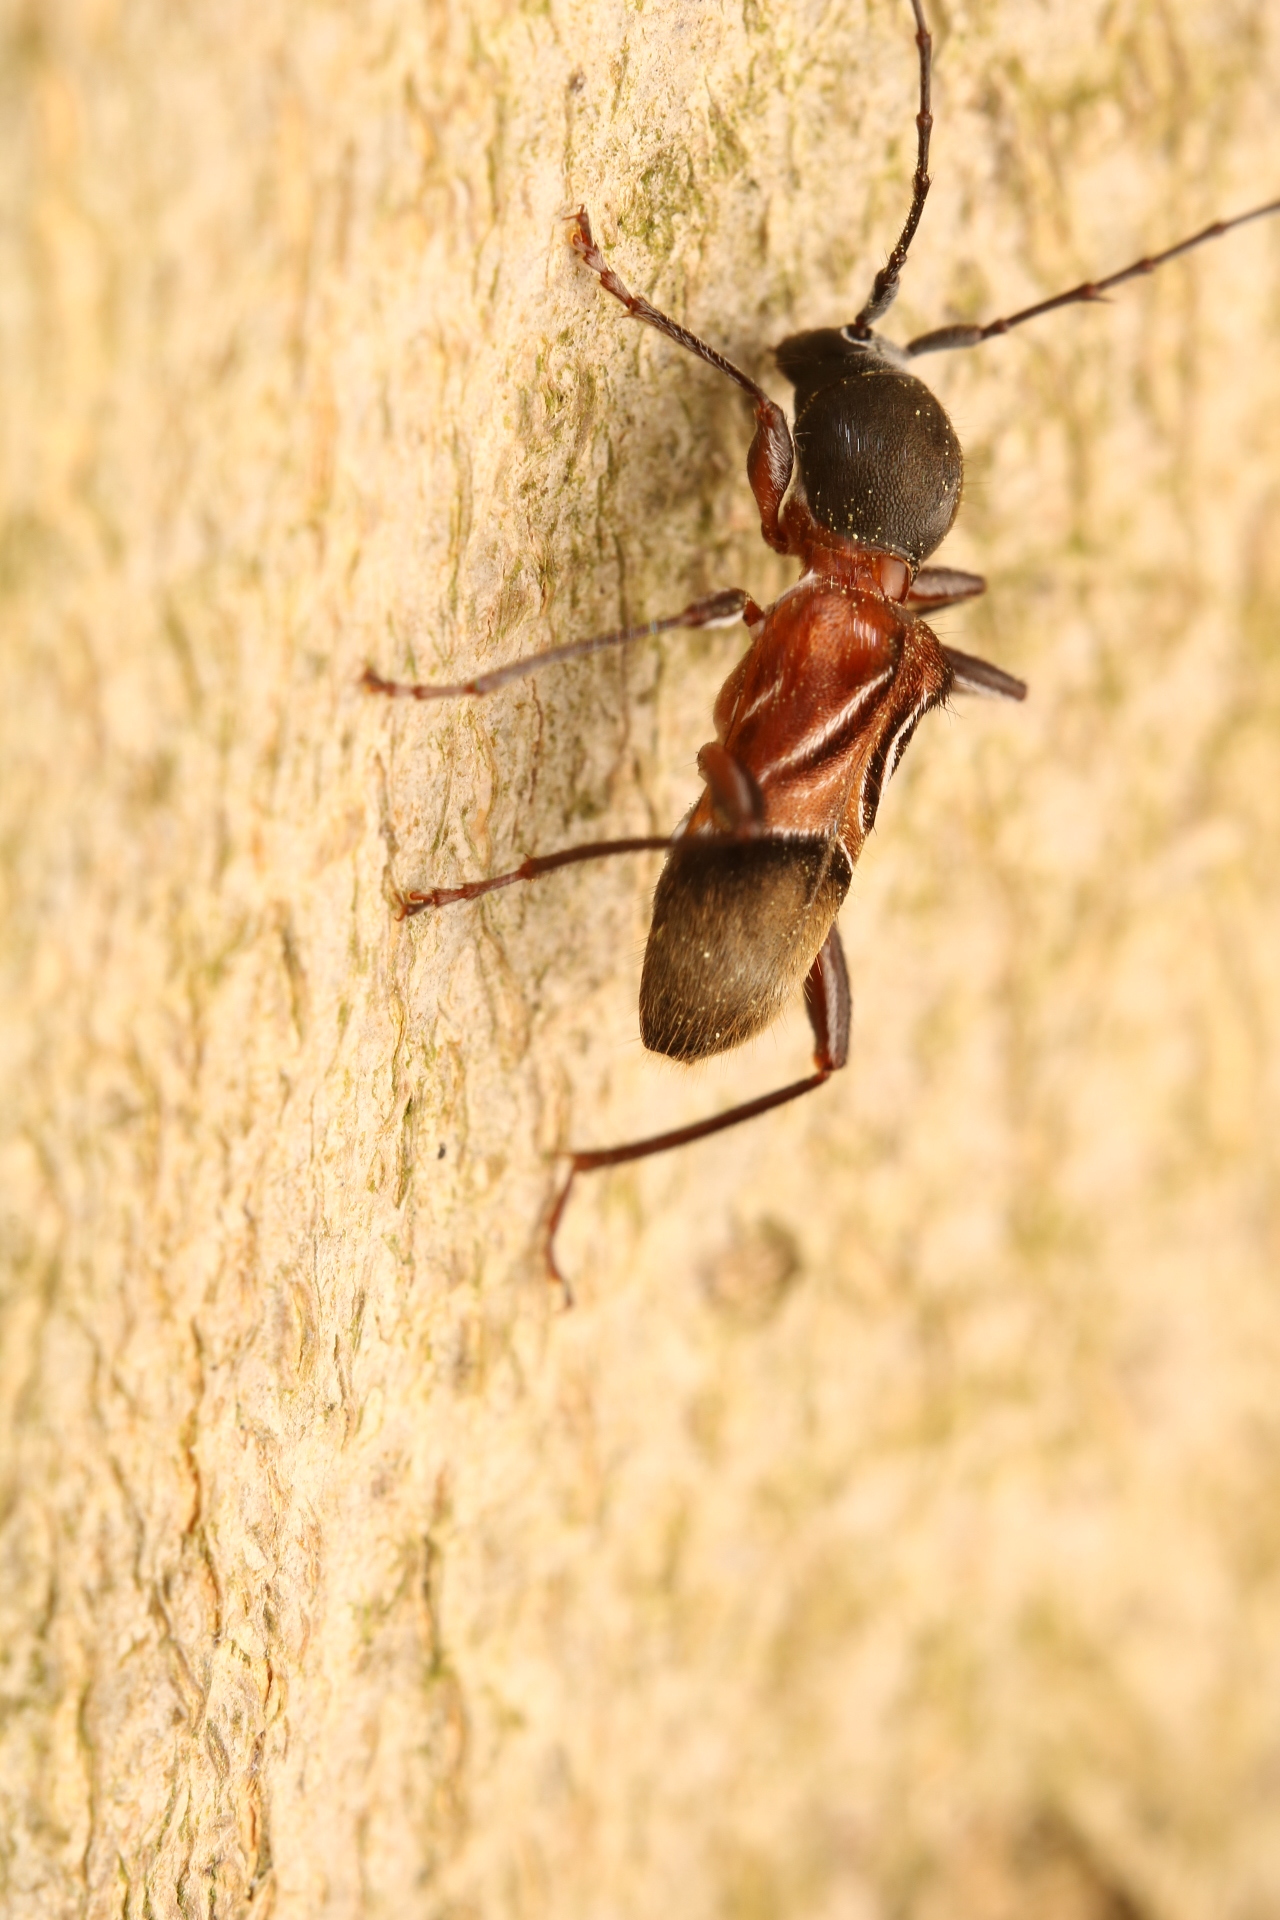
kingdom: Animalia
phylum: Arthropoda
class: Insecta
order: Coleoptera
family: Cerambycidae
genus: Cyrtophorus
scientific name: Cyrtophorus verrucosus
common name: Ant-like longhorn beetle
